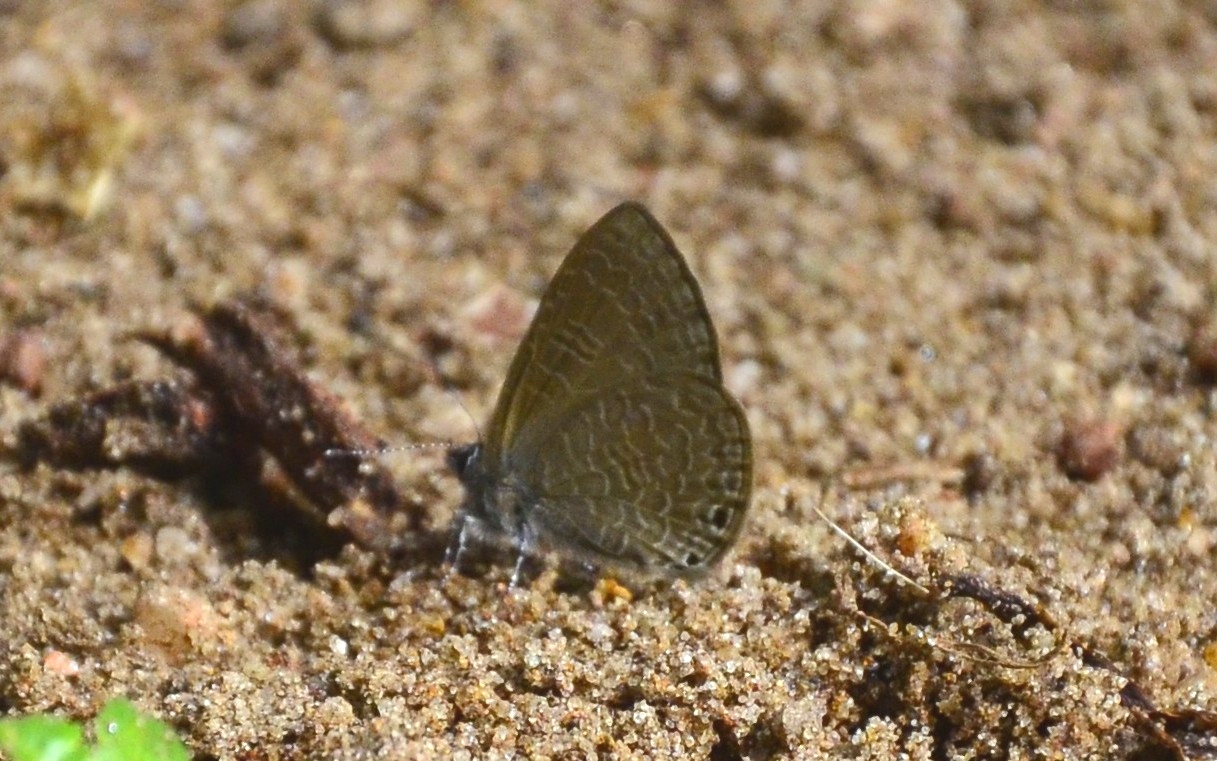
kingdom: Animalia
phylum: Arthropoda
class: Insecta
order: Lepidoptera
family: Lycaenidae
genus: Petrelaea
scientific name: Petrelaea dana
